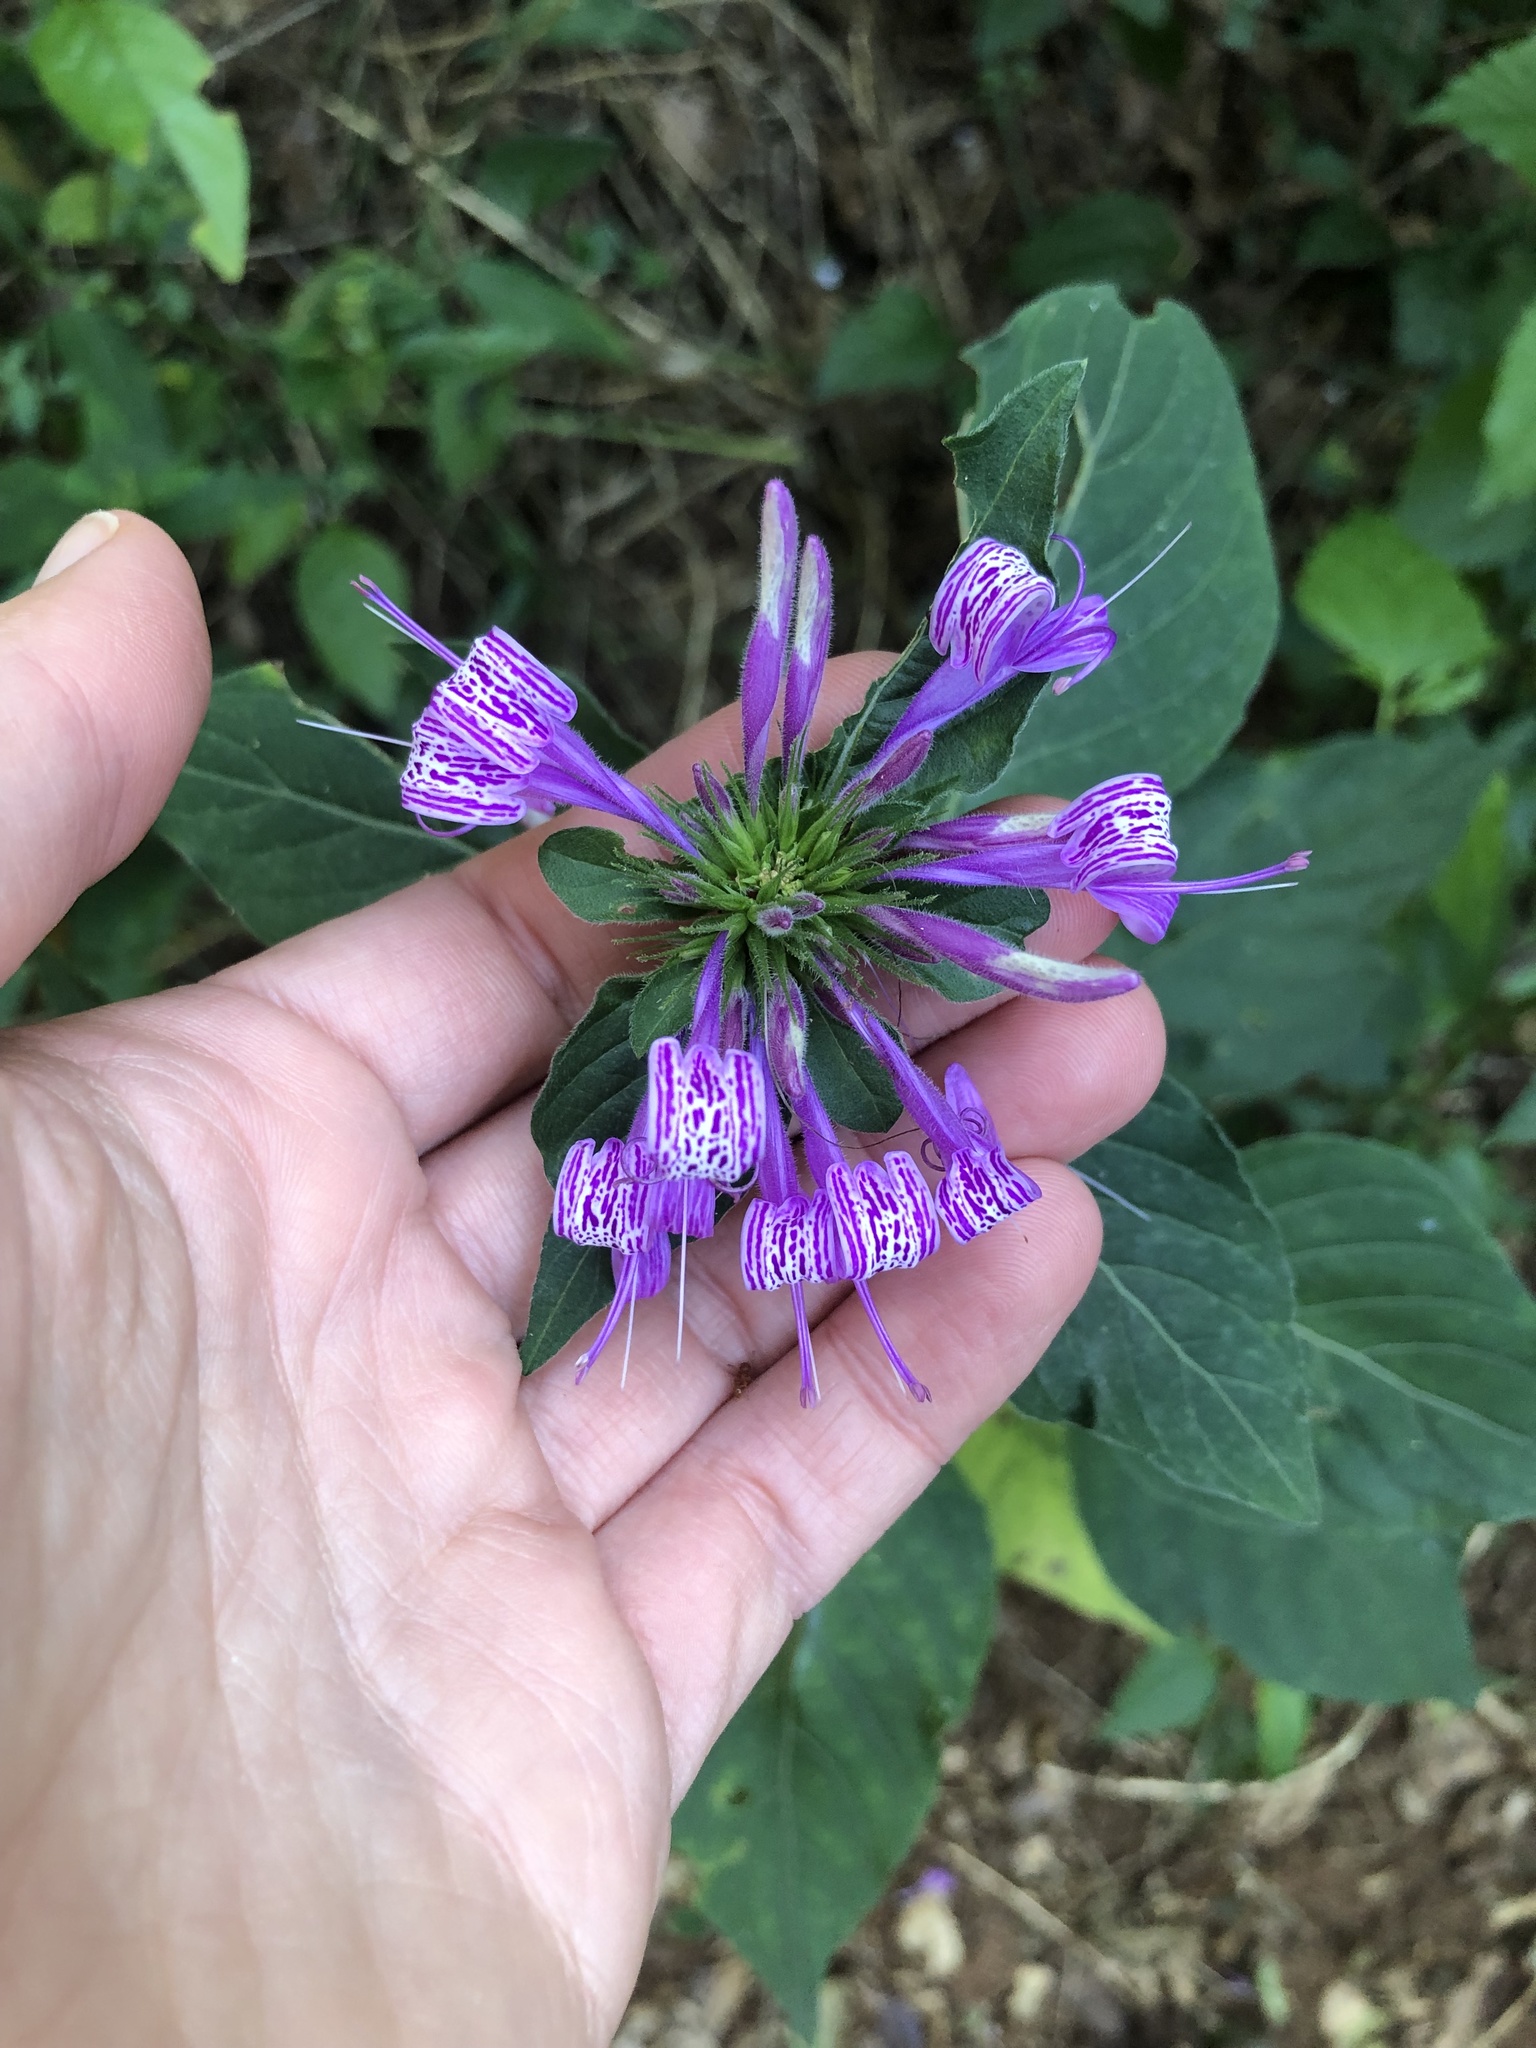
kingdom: Plantae
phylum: Tracheophyta
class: Magnoliopsida
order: Lamiales
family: Acanthaceae
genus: Hypoestes
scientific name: Hypoestes aristata
